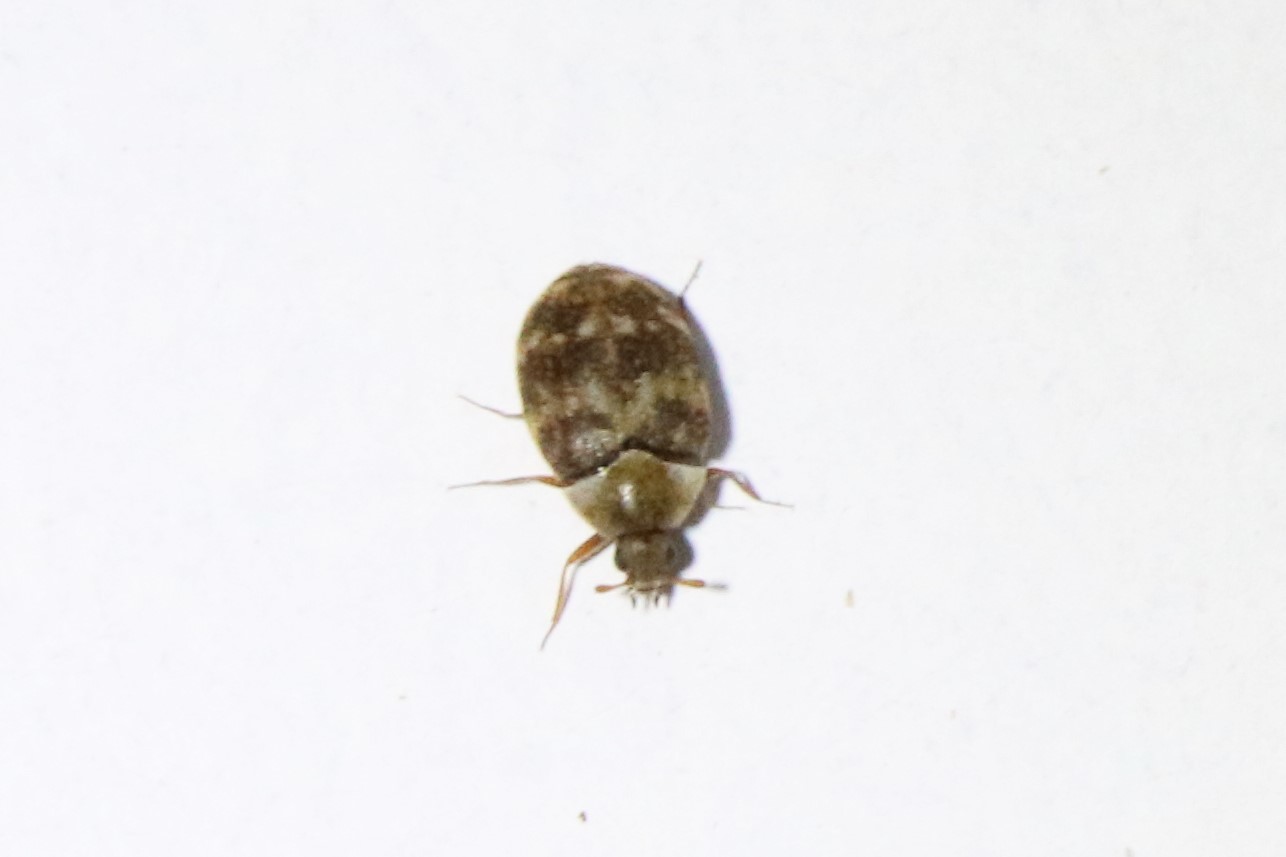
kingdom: Animalia
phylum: Arthropoda
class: Insecta
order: Coleoptera
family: Dermestidae
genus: Anthrenus
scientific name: Anthrenus fuscus
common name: Mill carpet beetle
